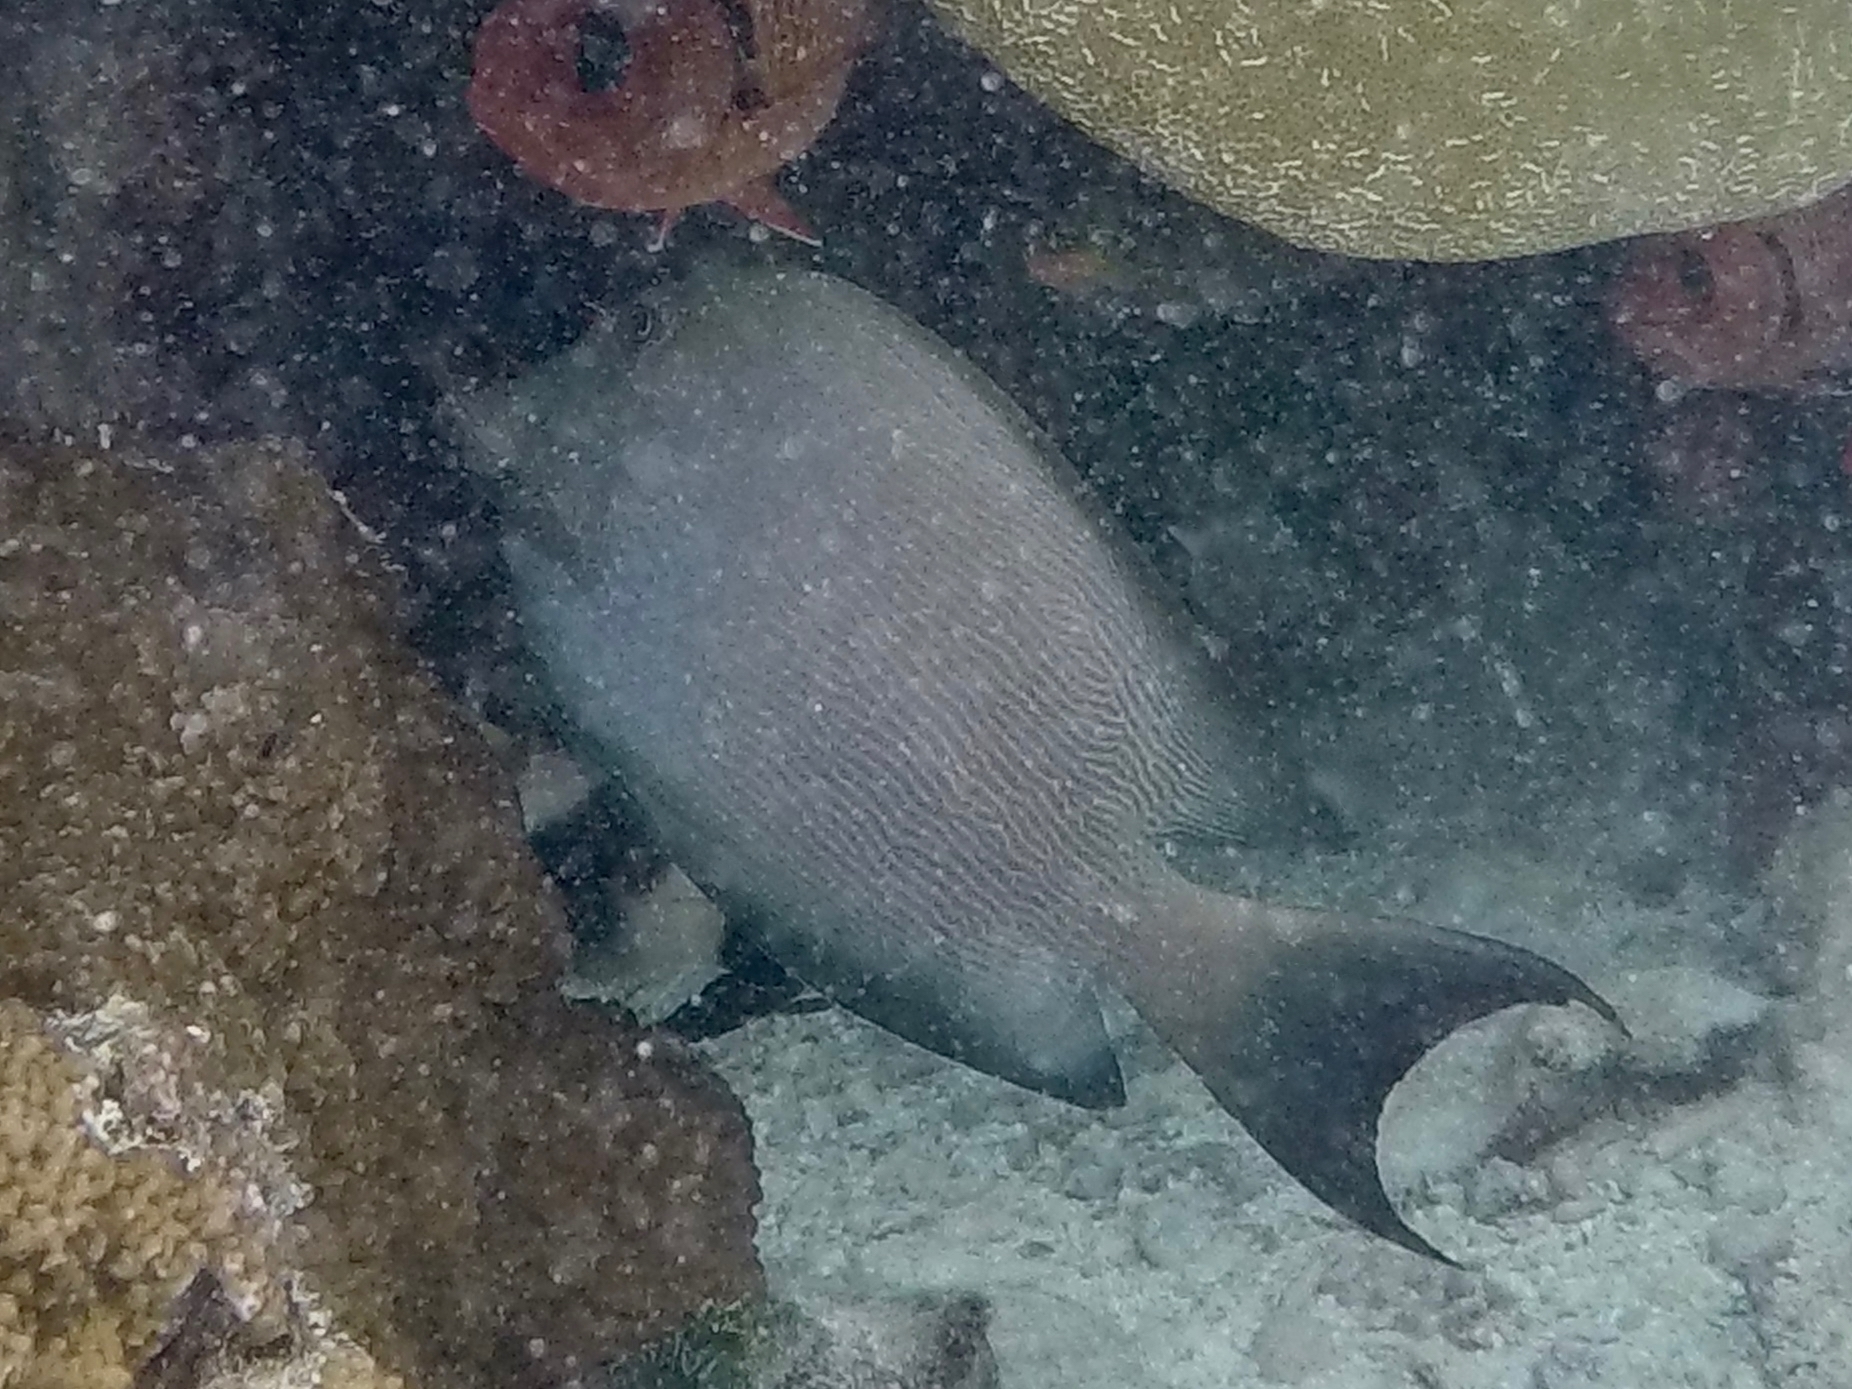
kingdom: Animalia
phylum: Chordata
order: Perciformes
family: Acanthuridae
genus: Ctenochaetus
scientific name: Ctenochaetus striatus
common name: Bristle-toothed surgeonfish
